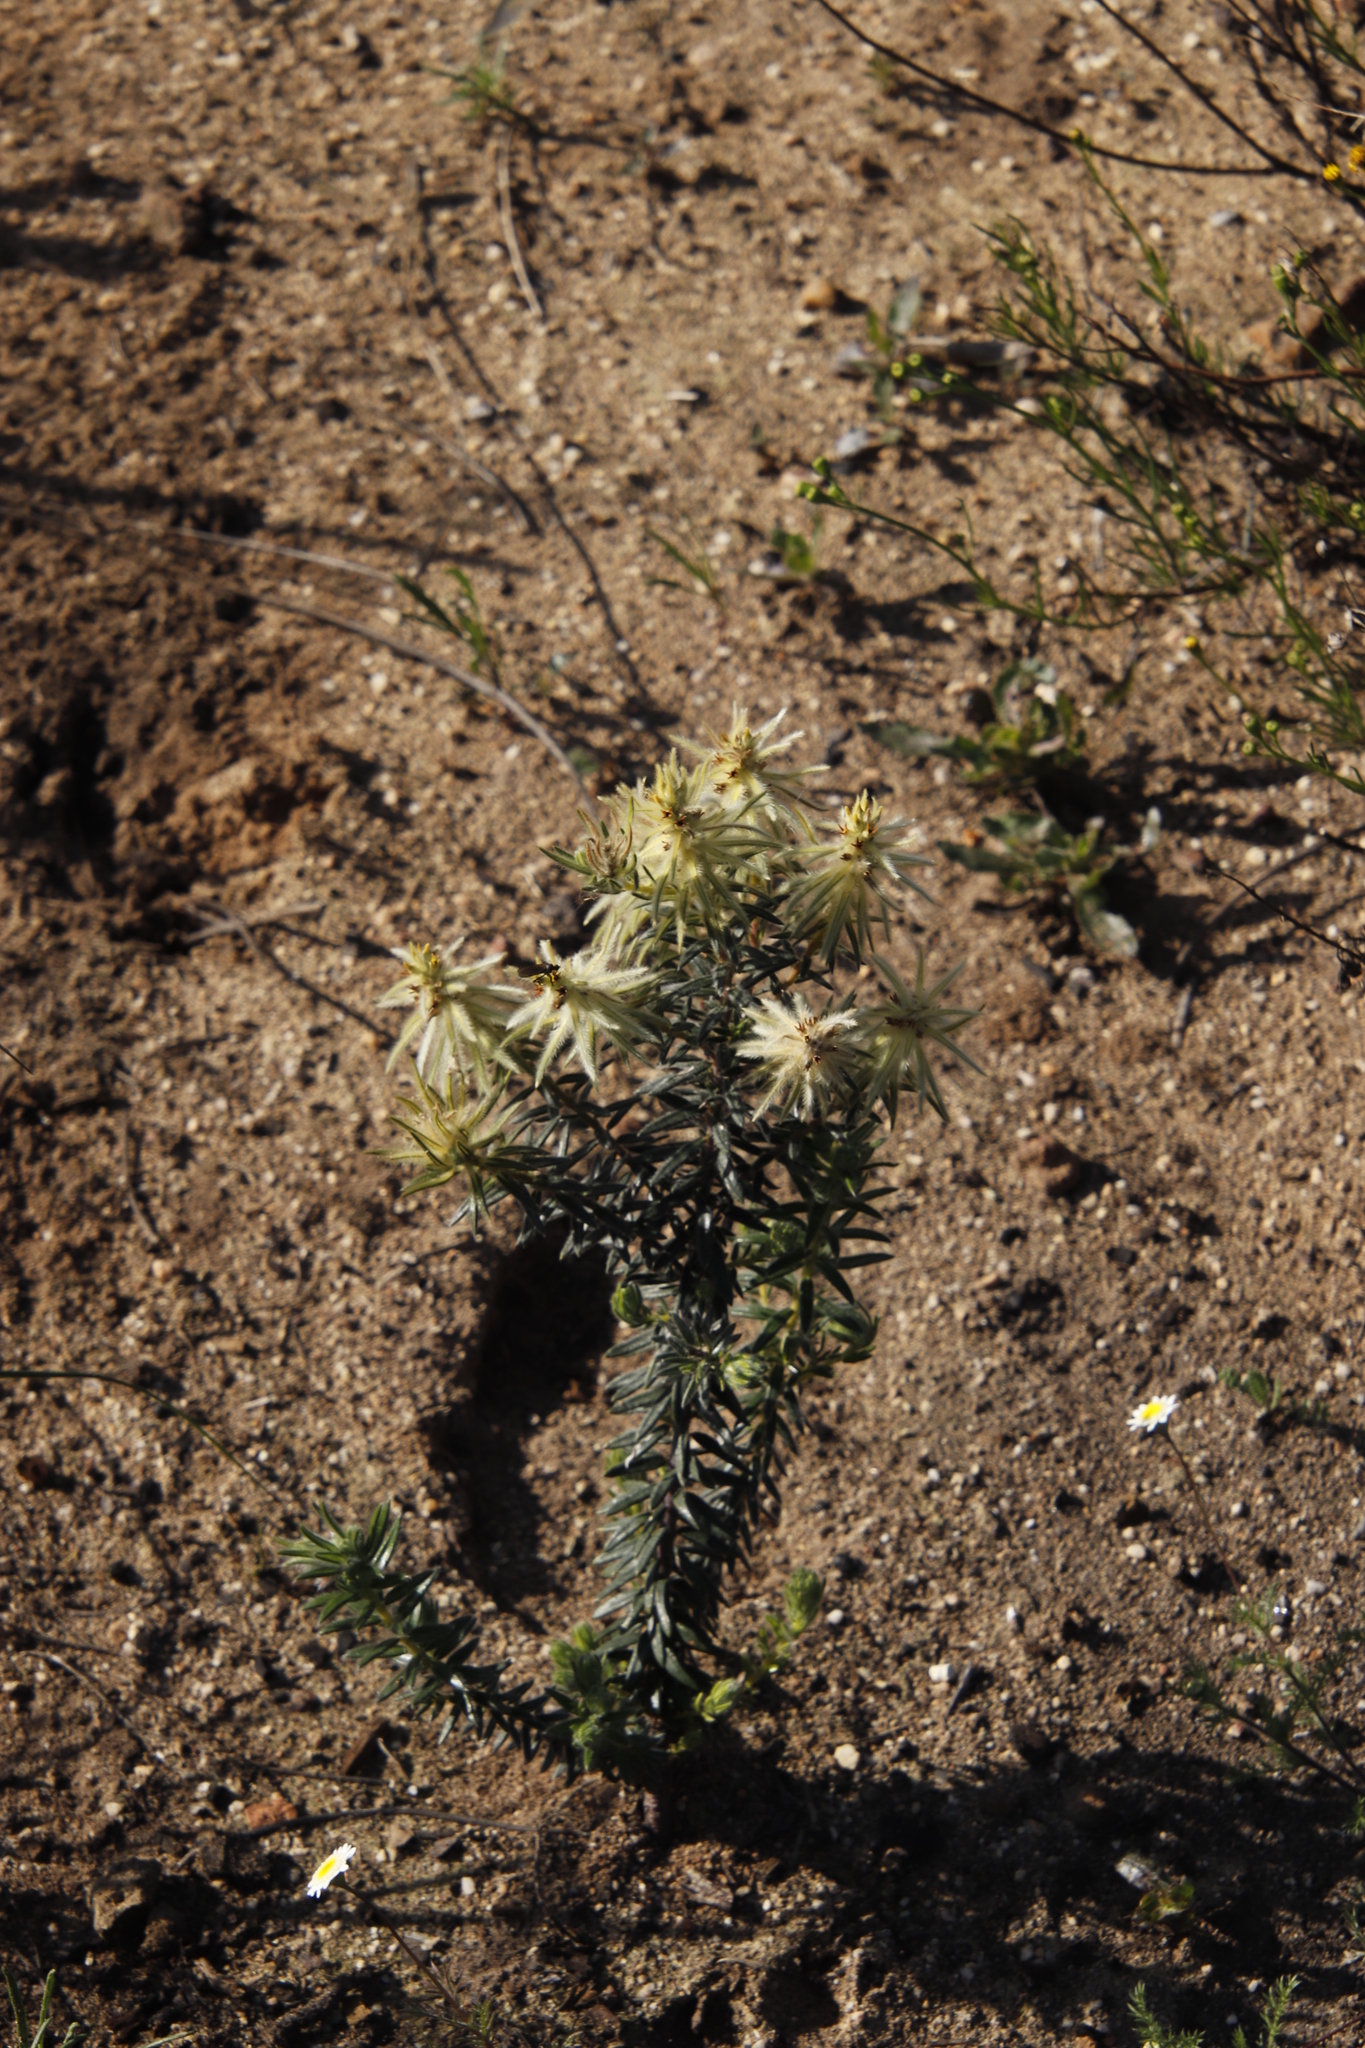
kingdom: Plantae
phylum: Tracheophyta
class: Magnoliopsida
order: Rosales
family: Rhamnaceae
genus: Phylica
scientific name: Phylica pubescens
